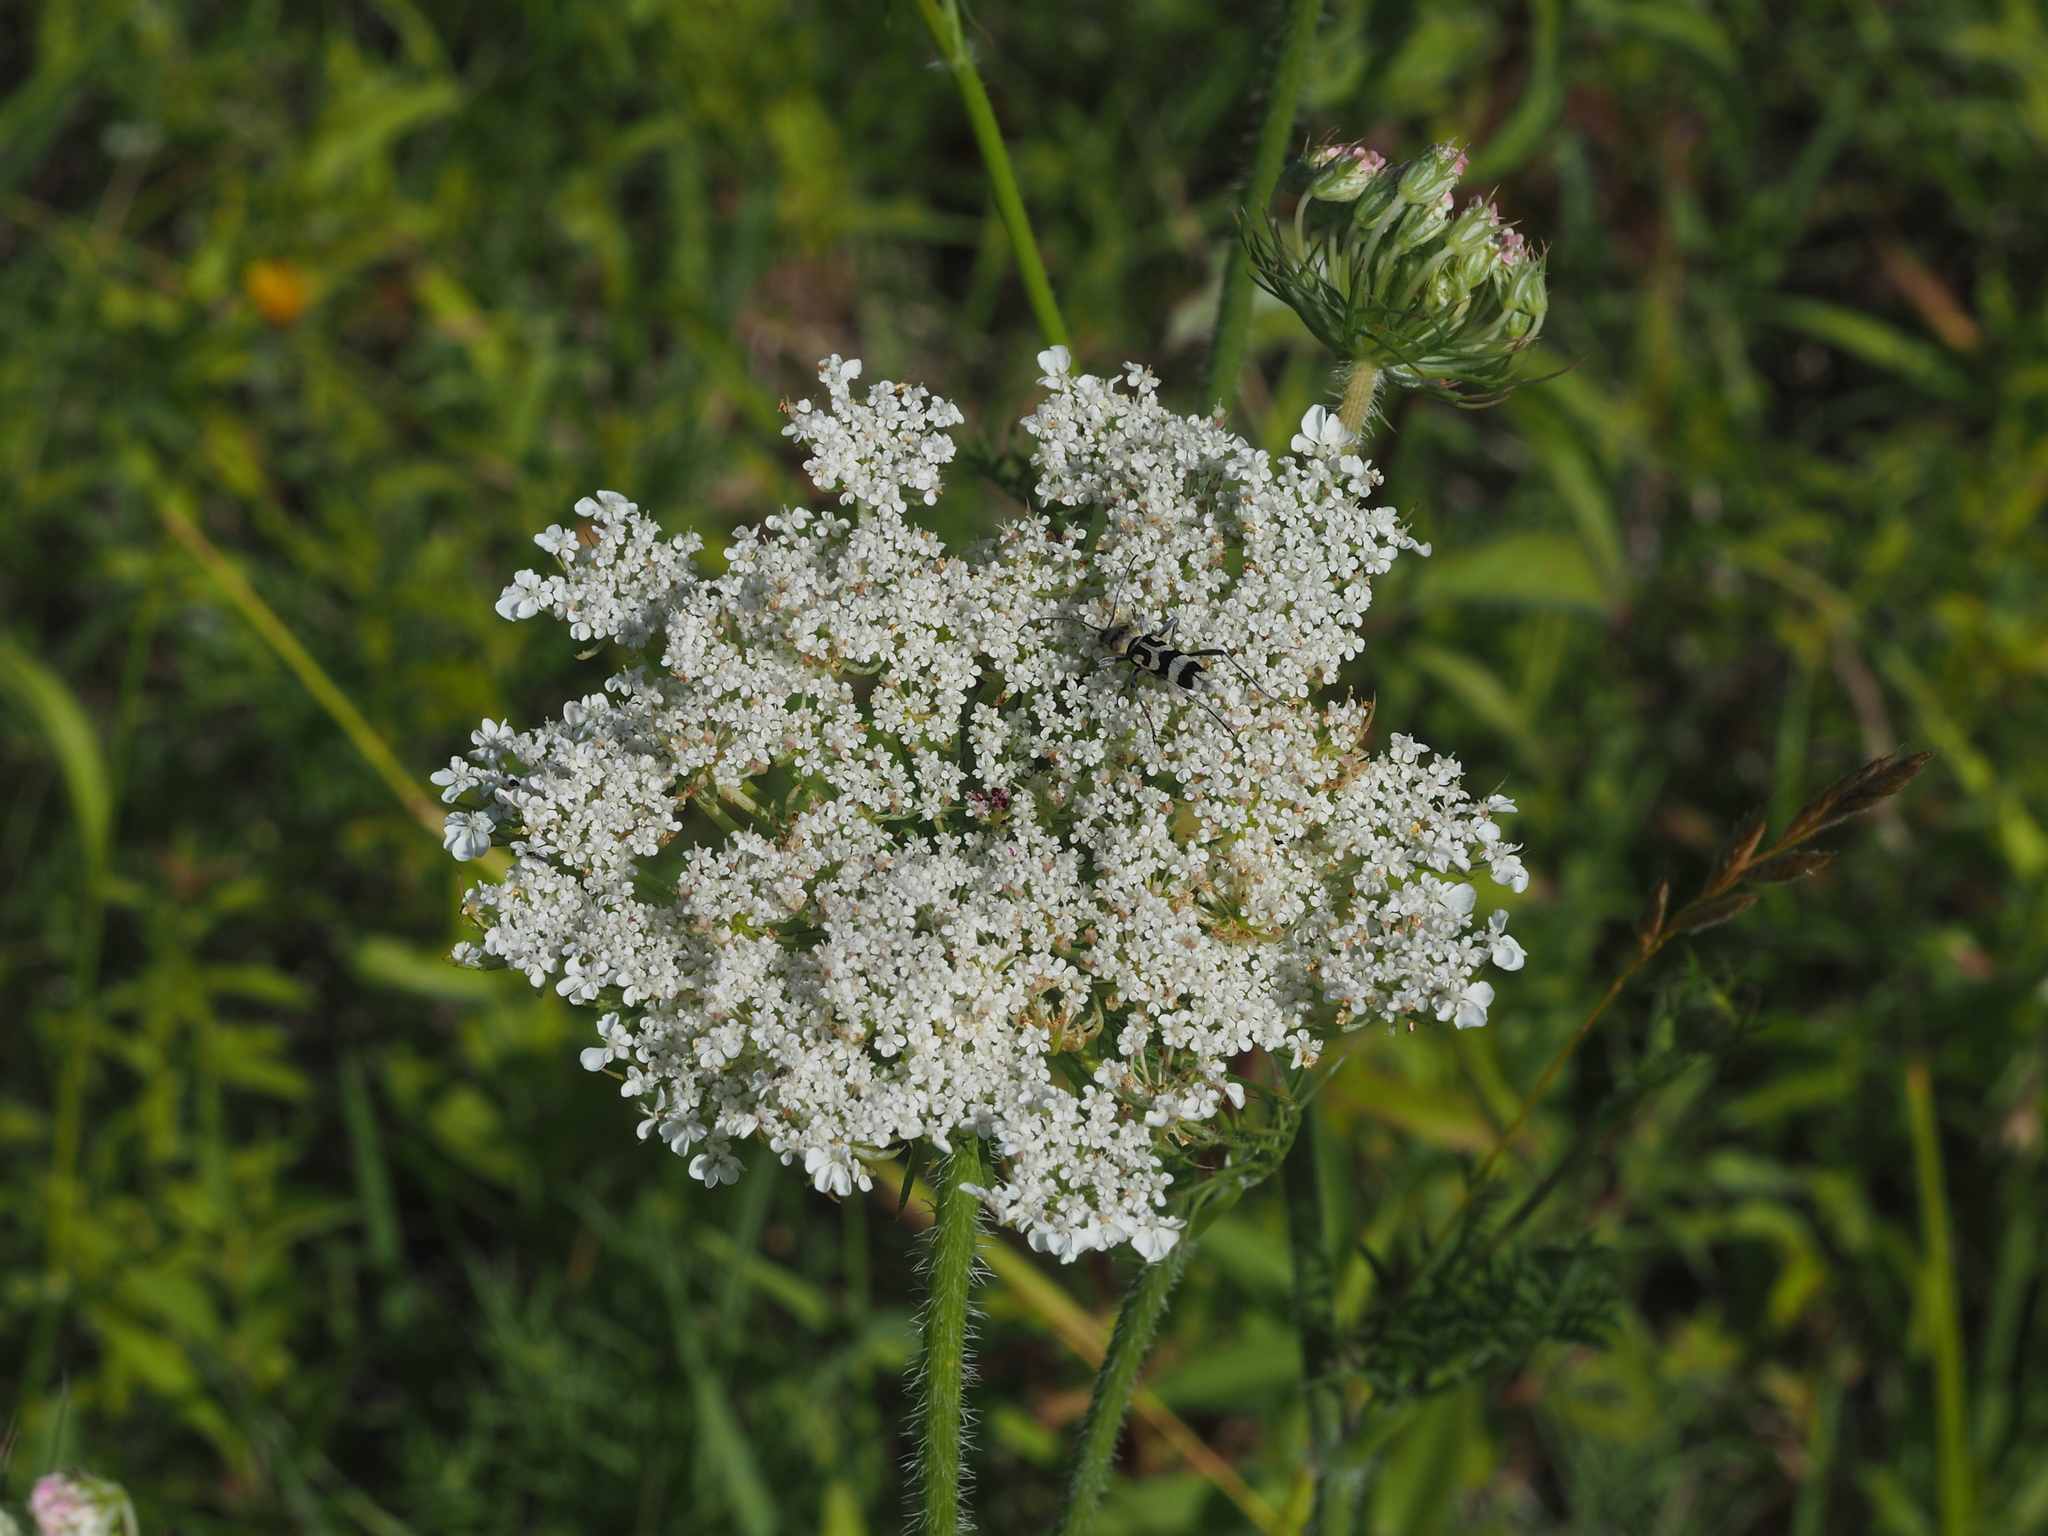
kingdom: Plantae
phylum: Tracheophyta
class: Magnoliopsida
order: Apiales
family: Apiaceae
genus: Daucus
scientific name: Daucus carota
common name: Wild carrot
